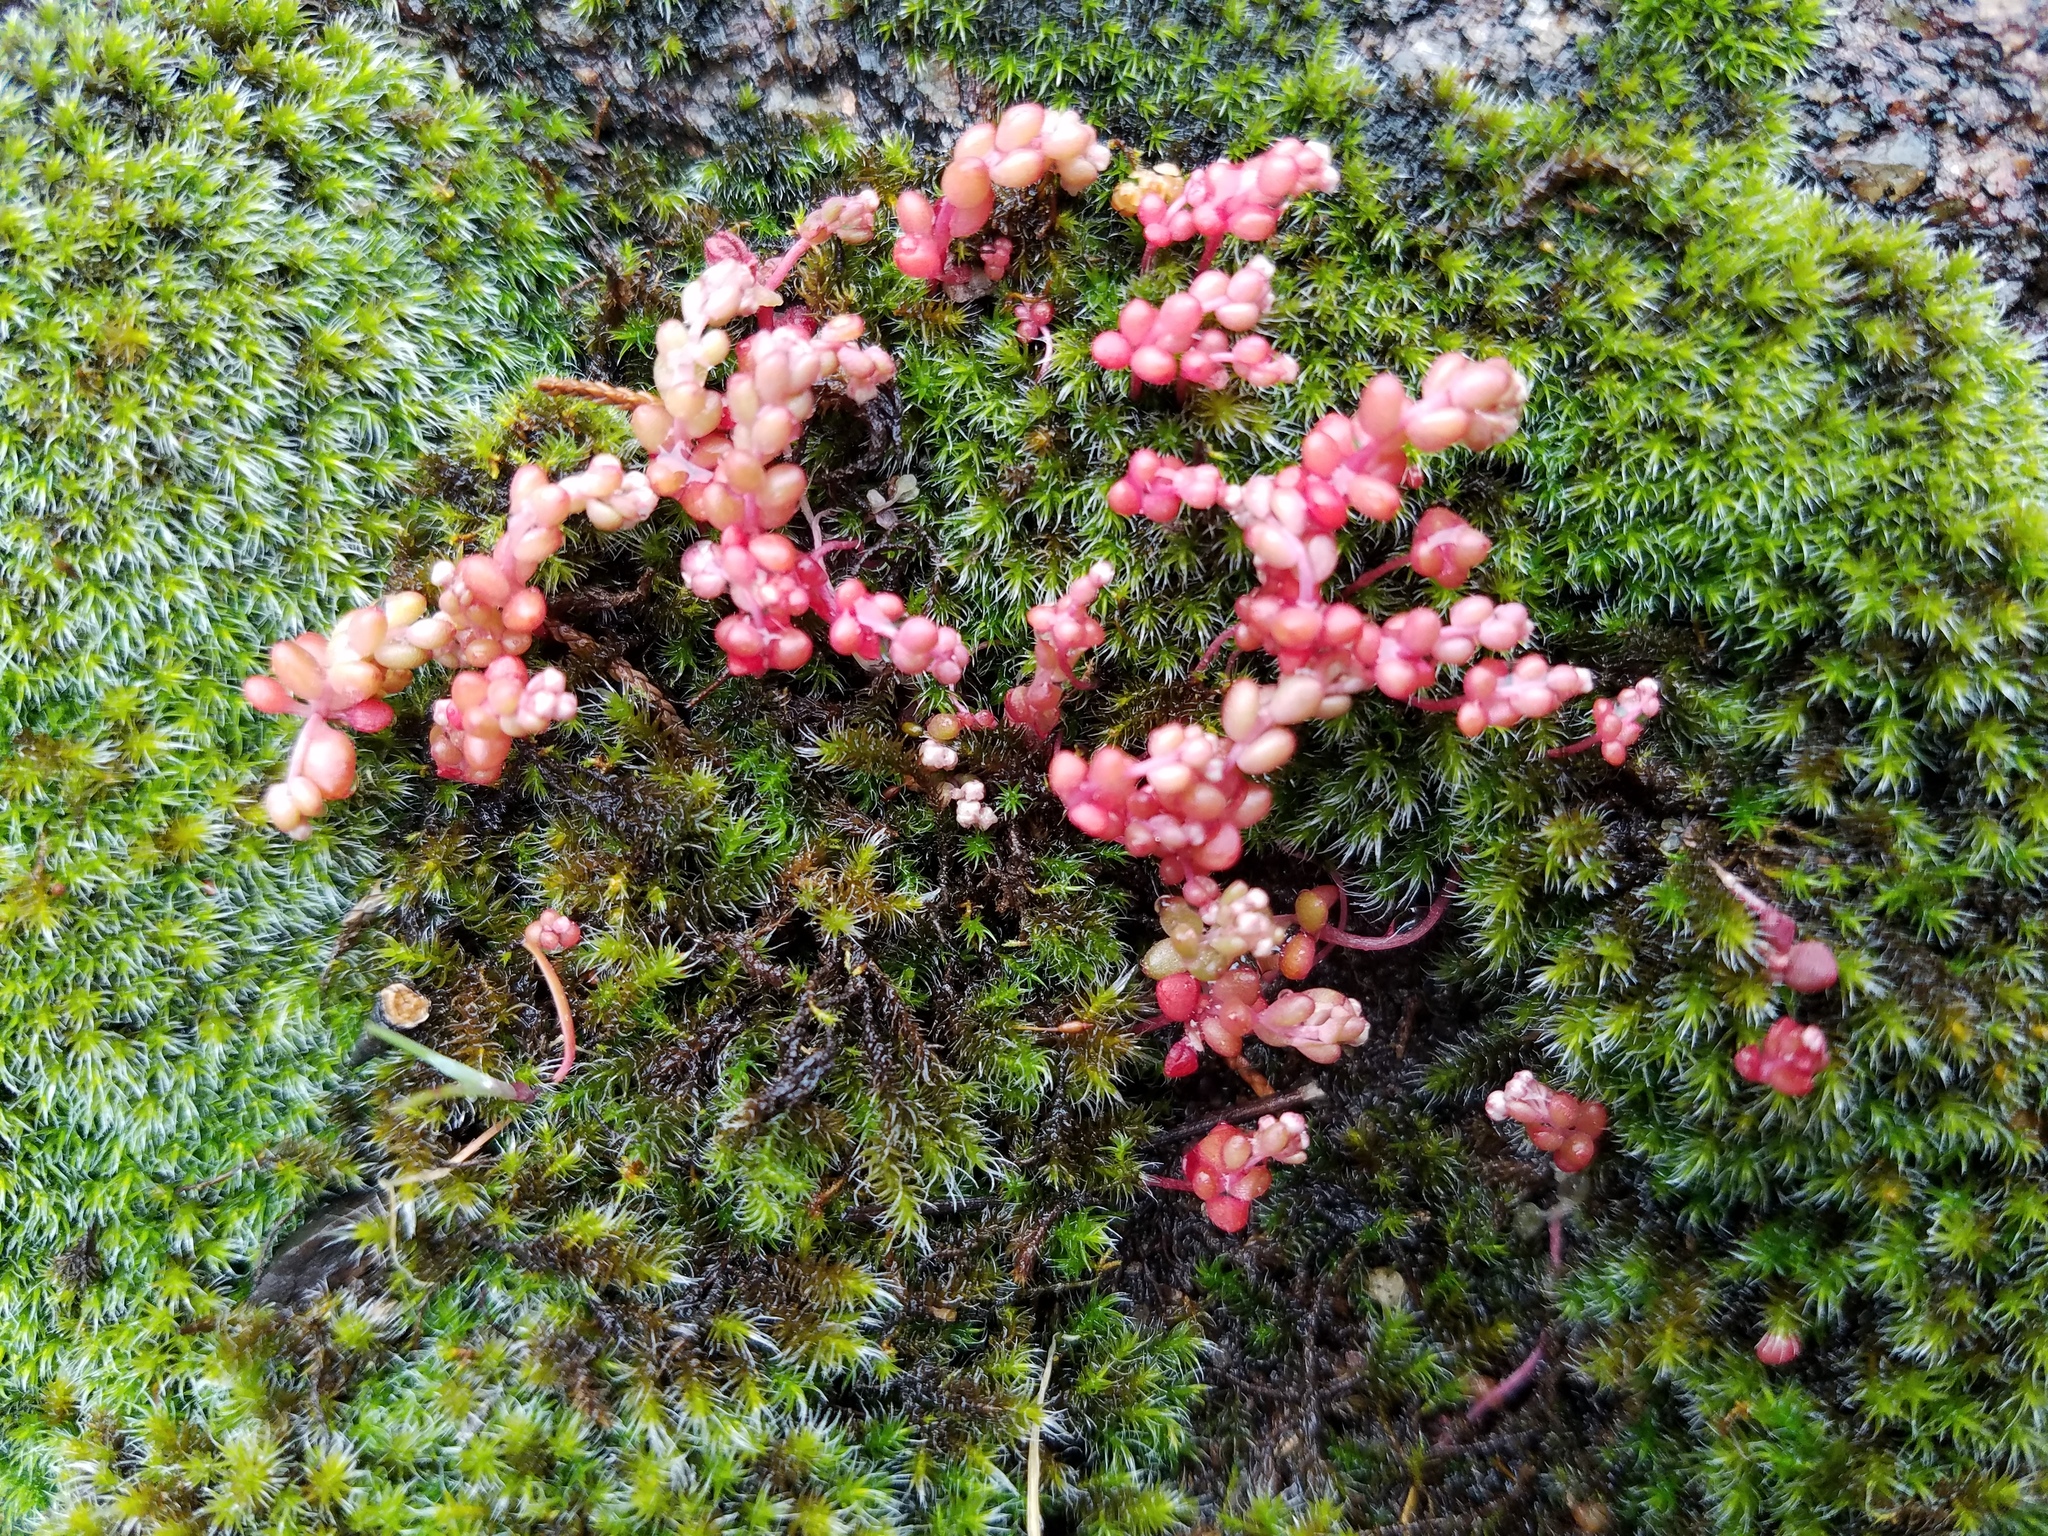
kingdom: Plantae
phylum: Tracheophyta
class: Magnoliopsida
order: Saxifragales
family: Crassulaceae
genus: Sedum
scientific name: Sedum smallii
